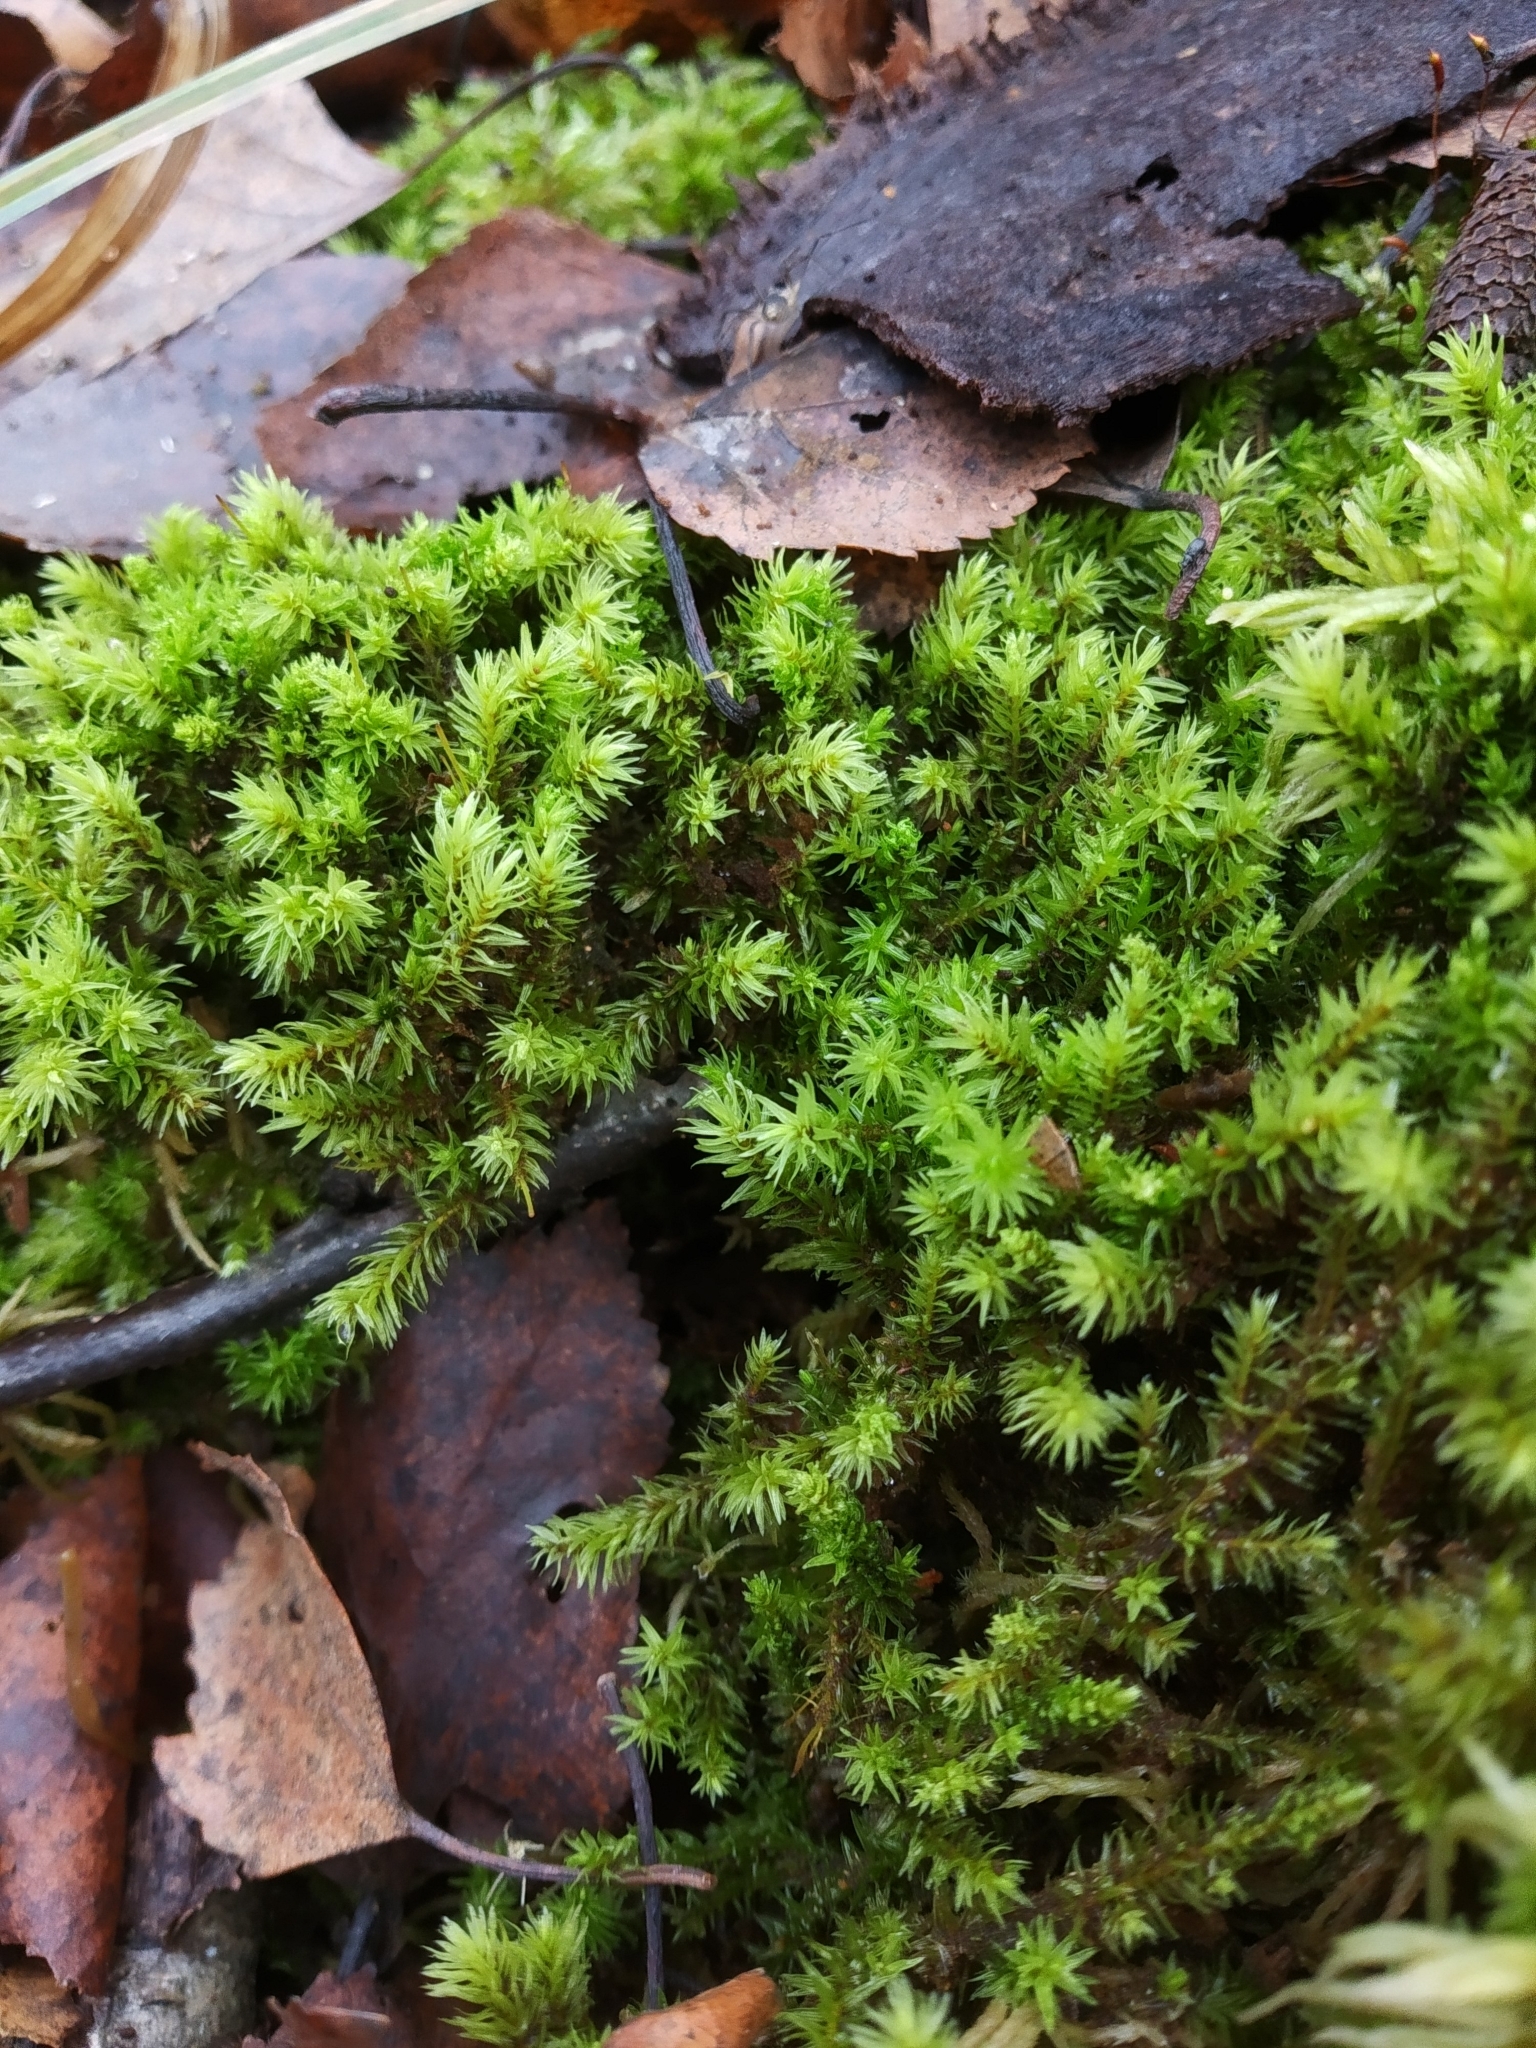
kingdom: Plantae
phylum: Bryophyta
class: Bryopsida
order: Aulacomniales
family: Aulacomniaceae
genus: Aulacomnium
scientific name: Aulacomnium palustre
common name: Bog groove-moss
